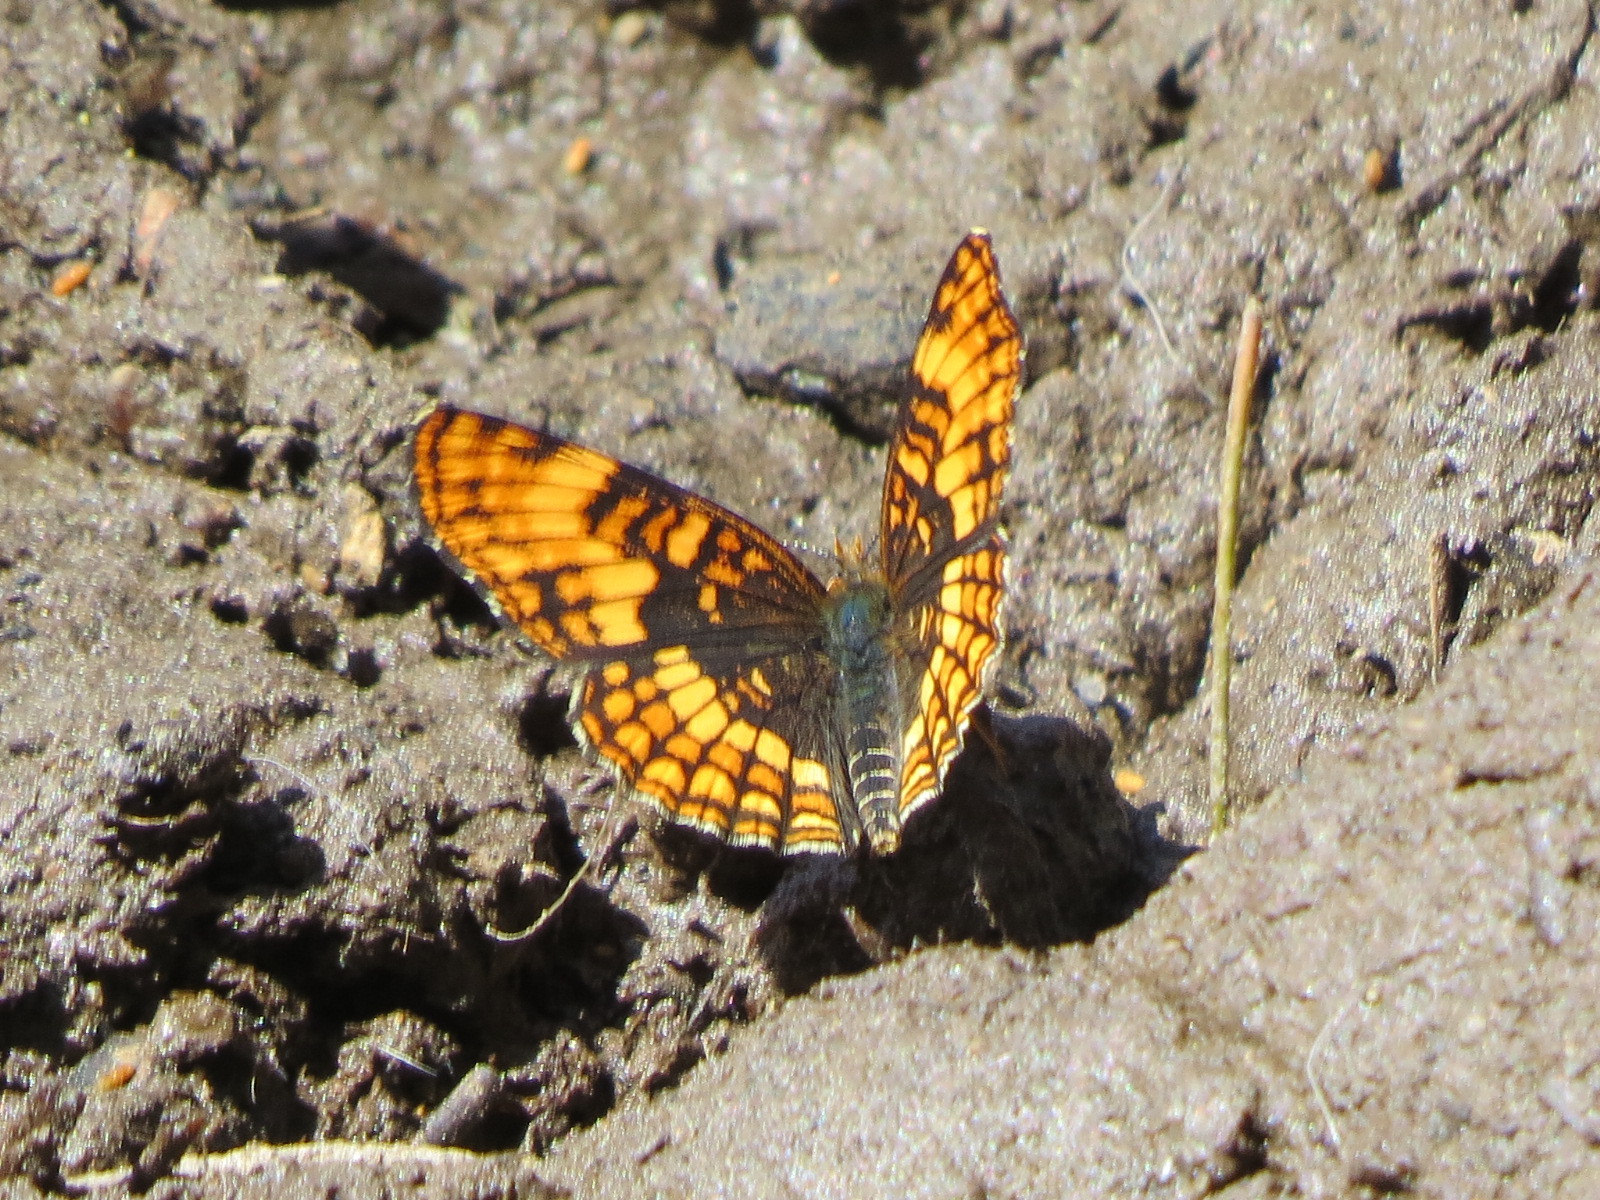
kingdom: Animalia
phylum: Arthropoda
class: Insecta
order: Lepidoptera
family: Nymphalidae
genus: Chlosyne
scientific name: Chlosyne hoffmanni
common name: Hoffmann's checkerspot
